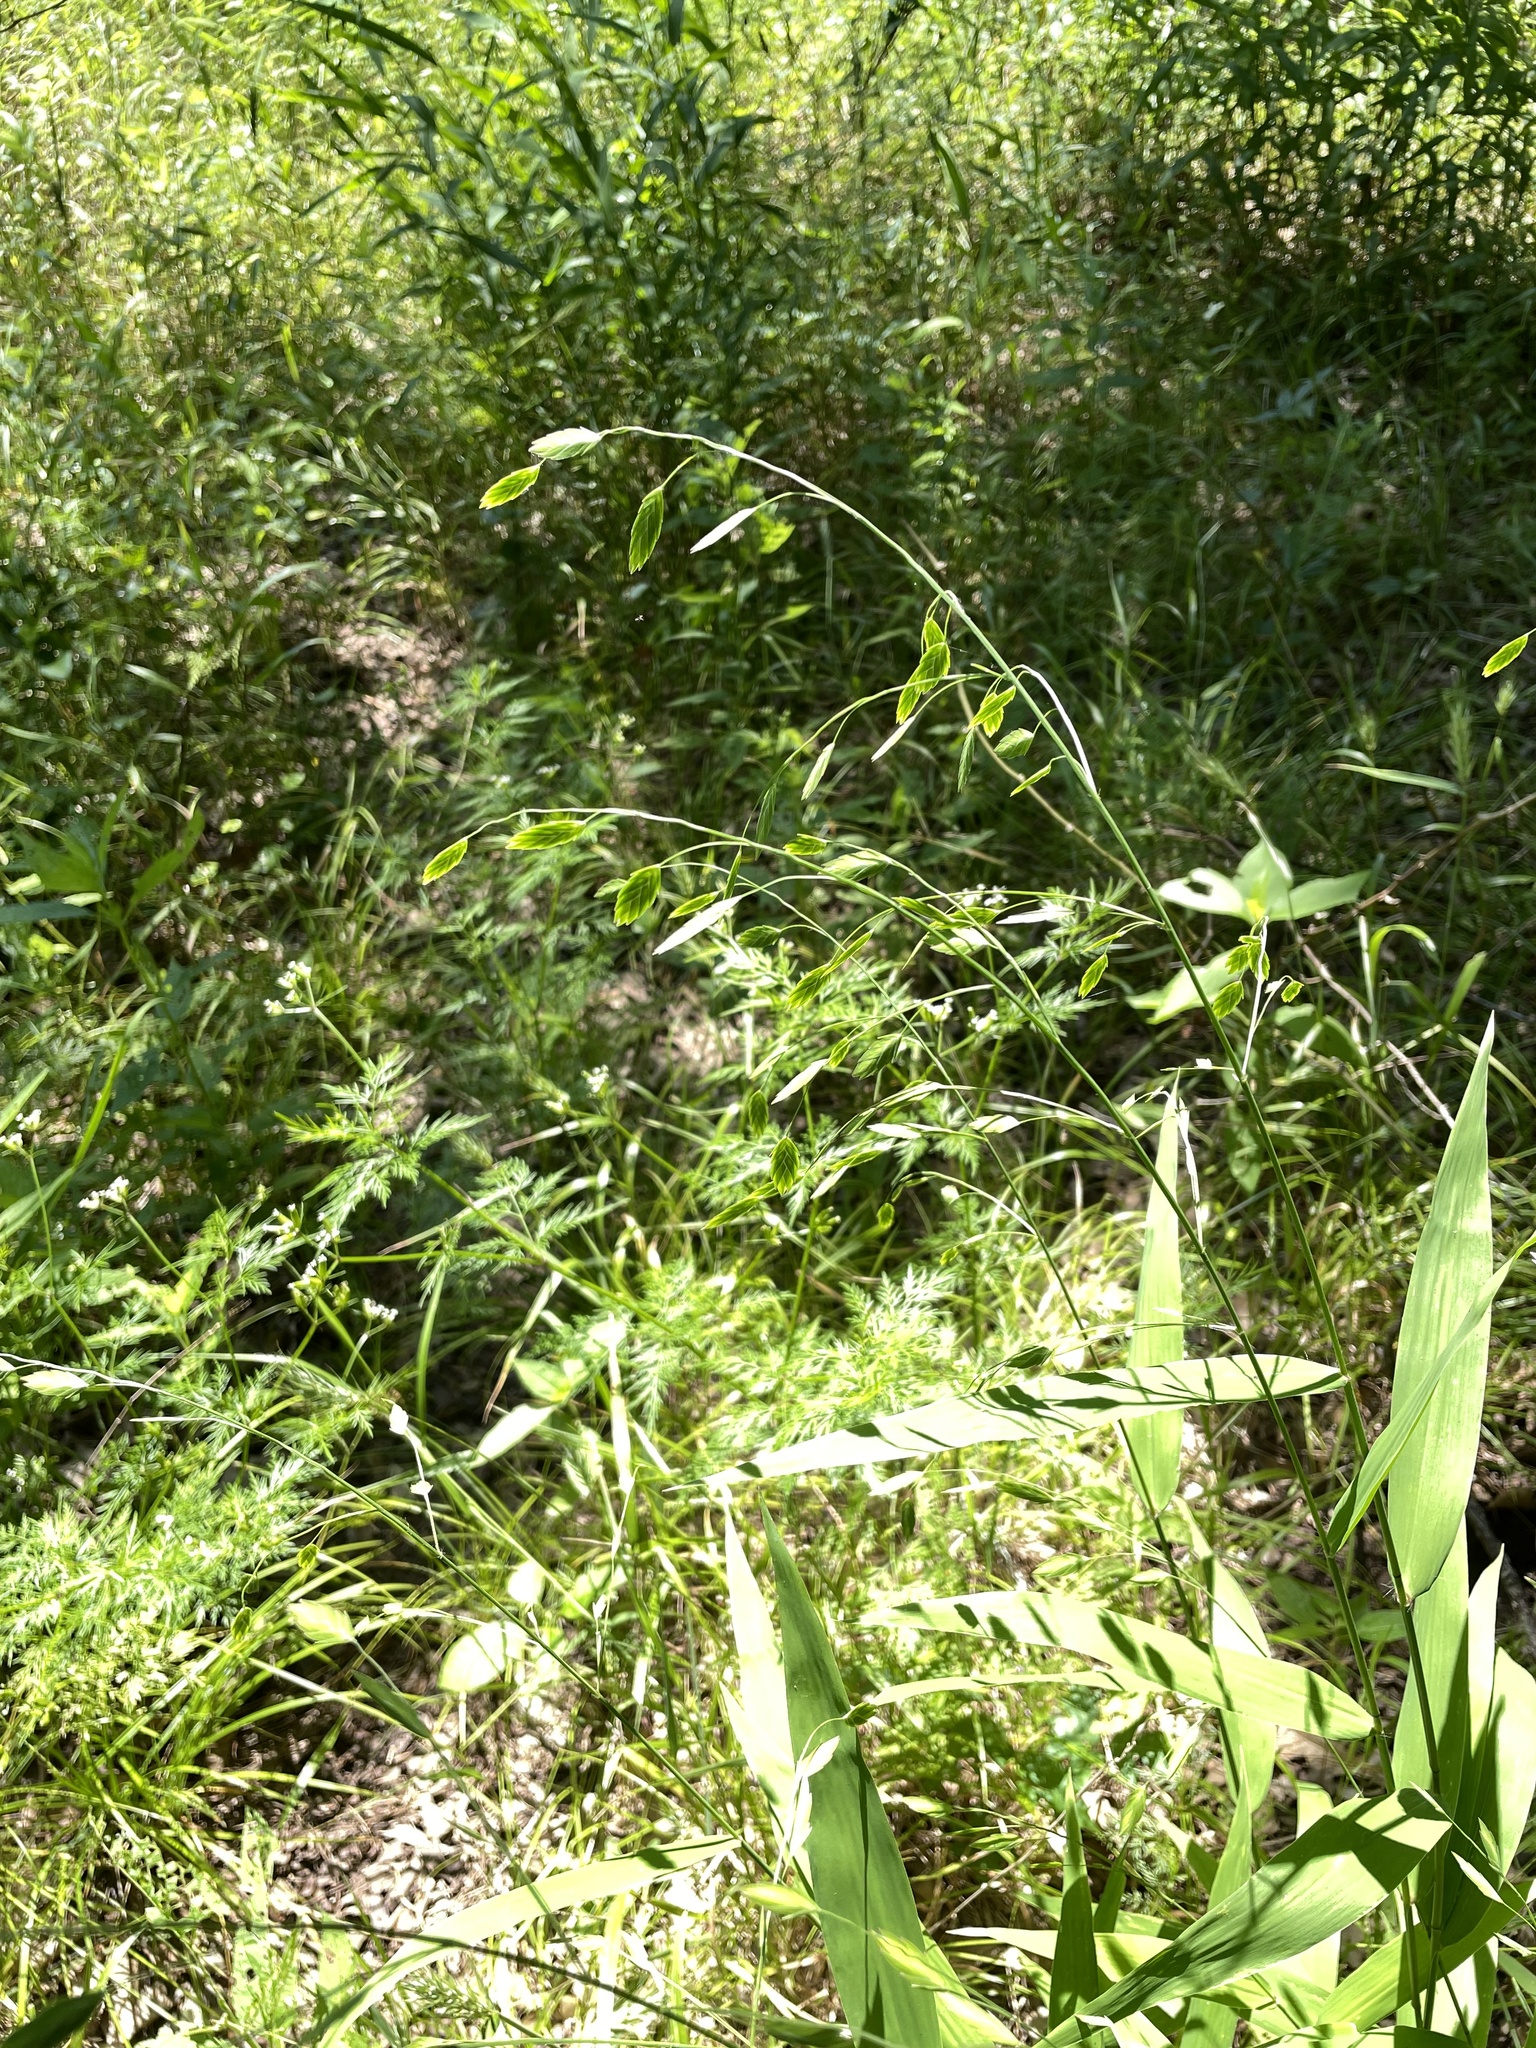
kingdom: Plantae
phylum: Tracheophyta
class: Liliopsida
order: Poales
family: Poaceae
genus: Chasmanthium
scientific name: Chasmanthium latifolium
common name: Broad-leaved chasmanthium
